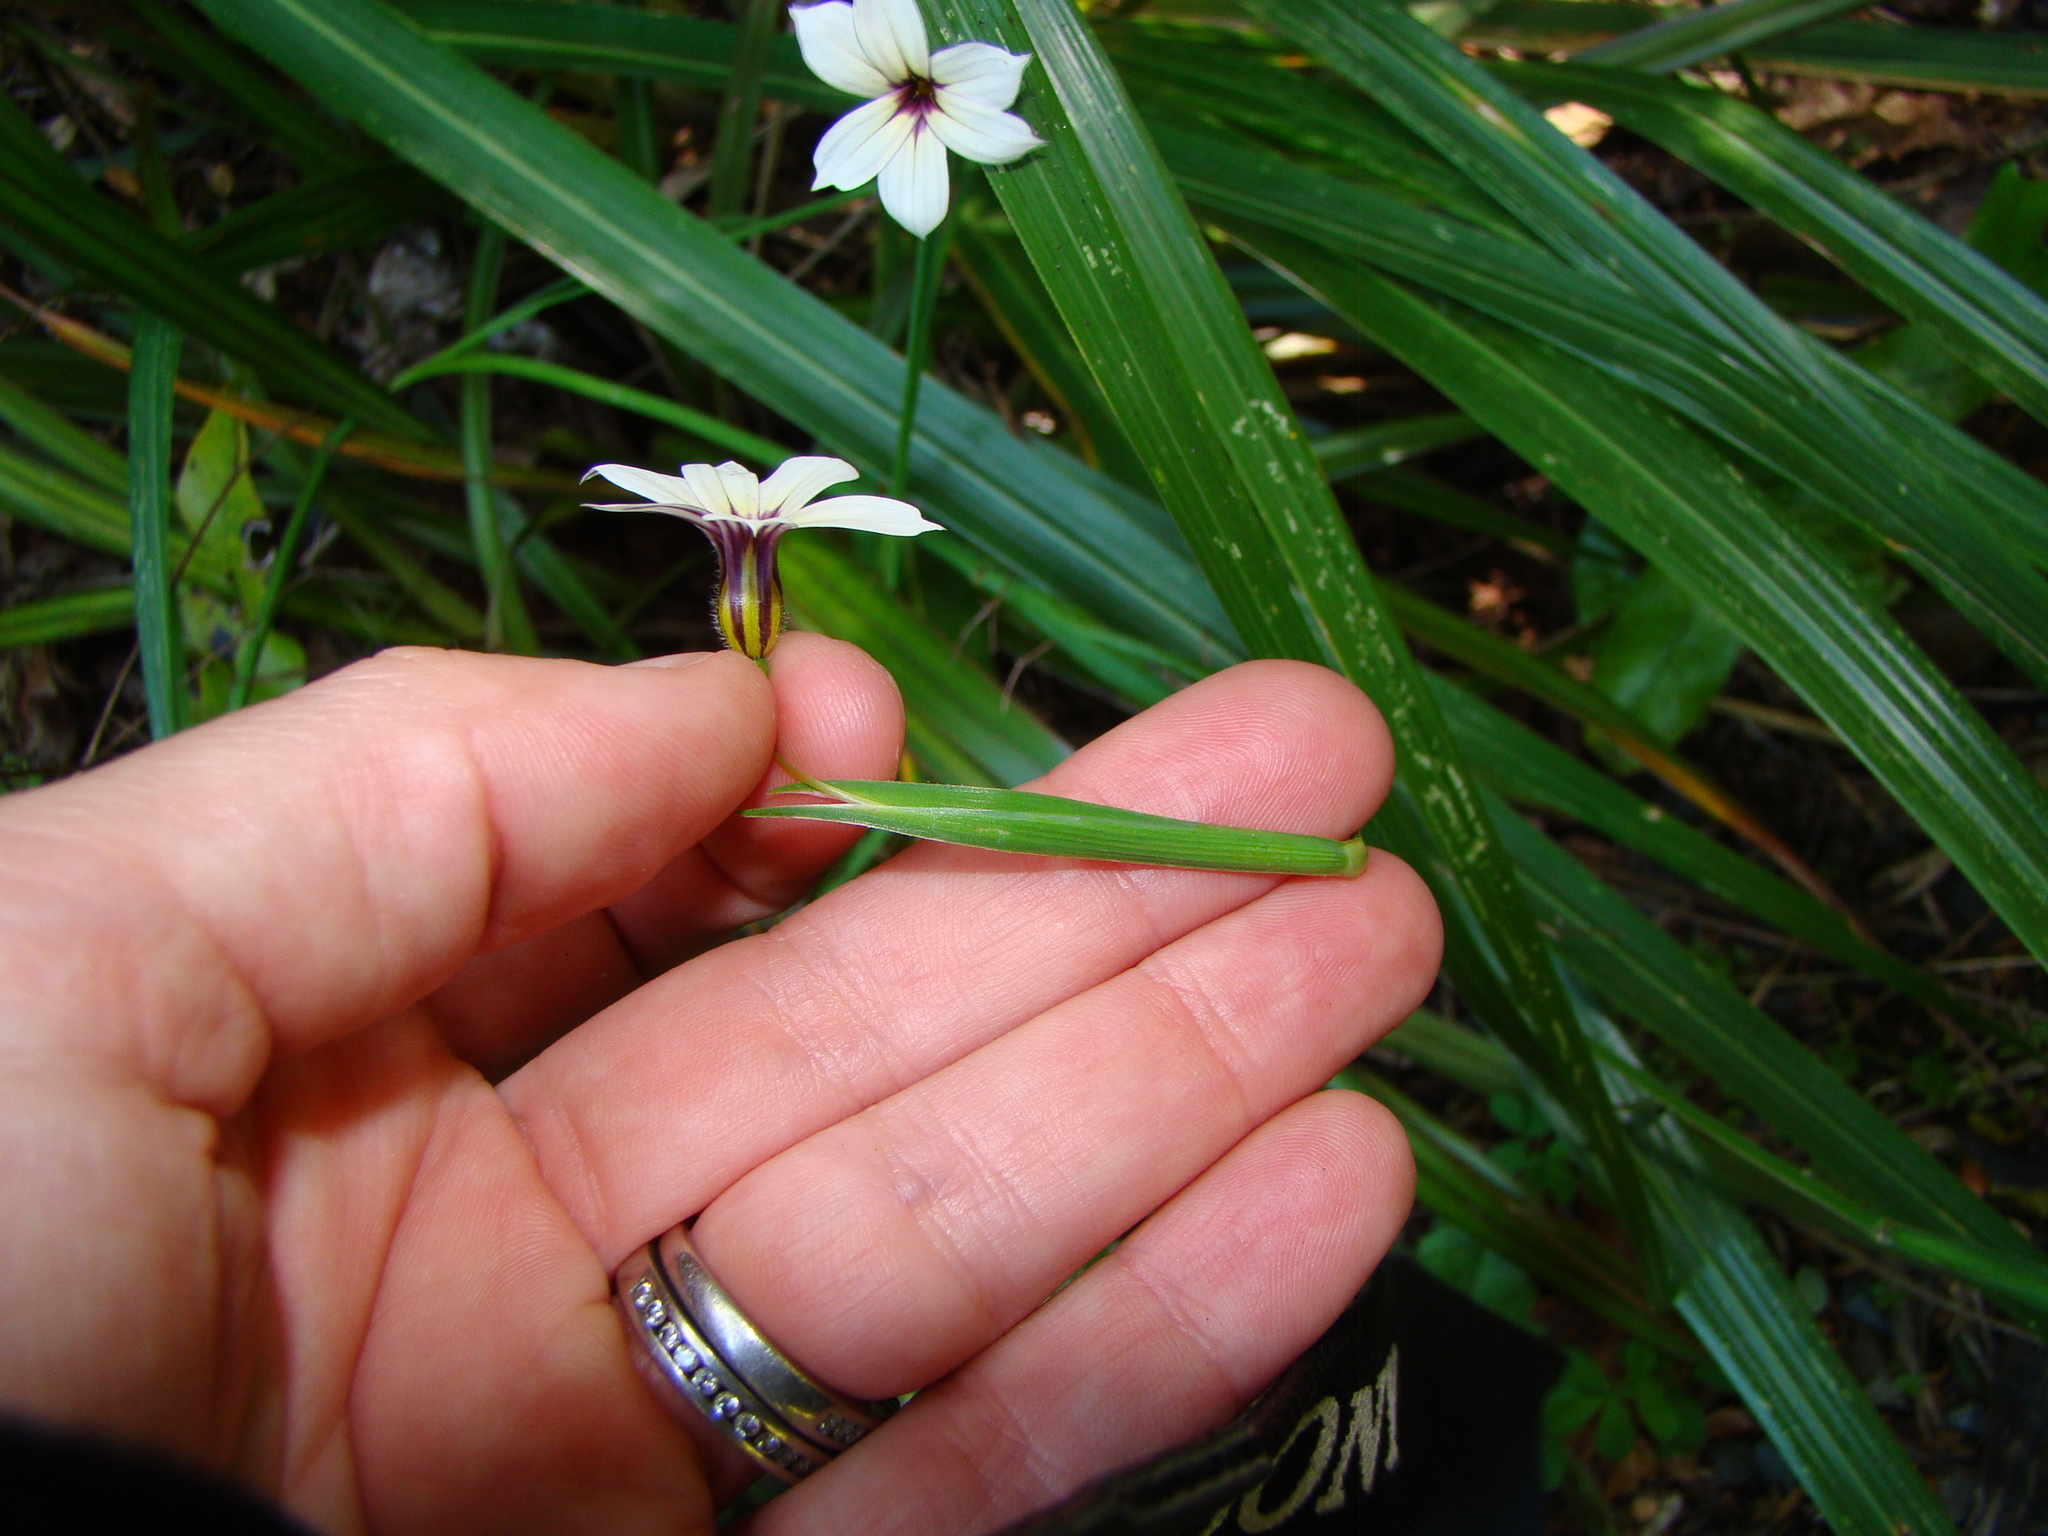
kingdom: Plantae
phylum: Tracheophyta
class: Liliopsida
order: Asparagales
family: Iridaceae
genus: Sisyrinchium
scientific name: Sisyrinchium micranthum
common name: Bermuda pigroot
